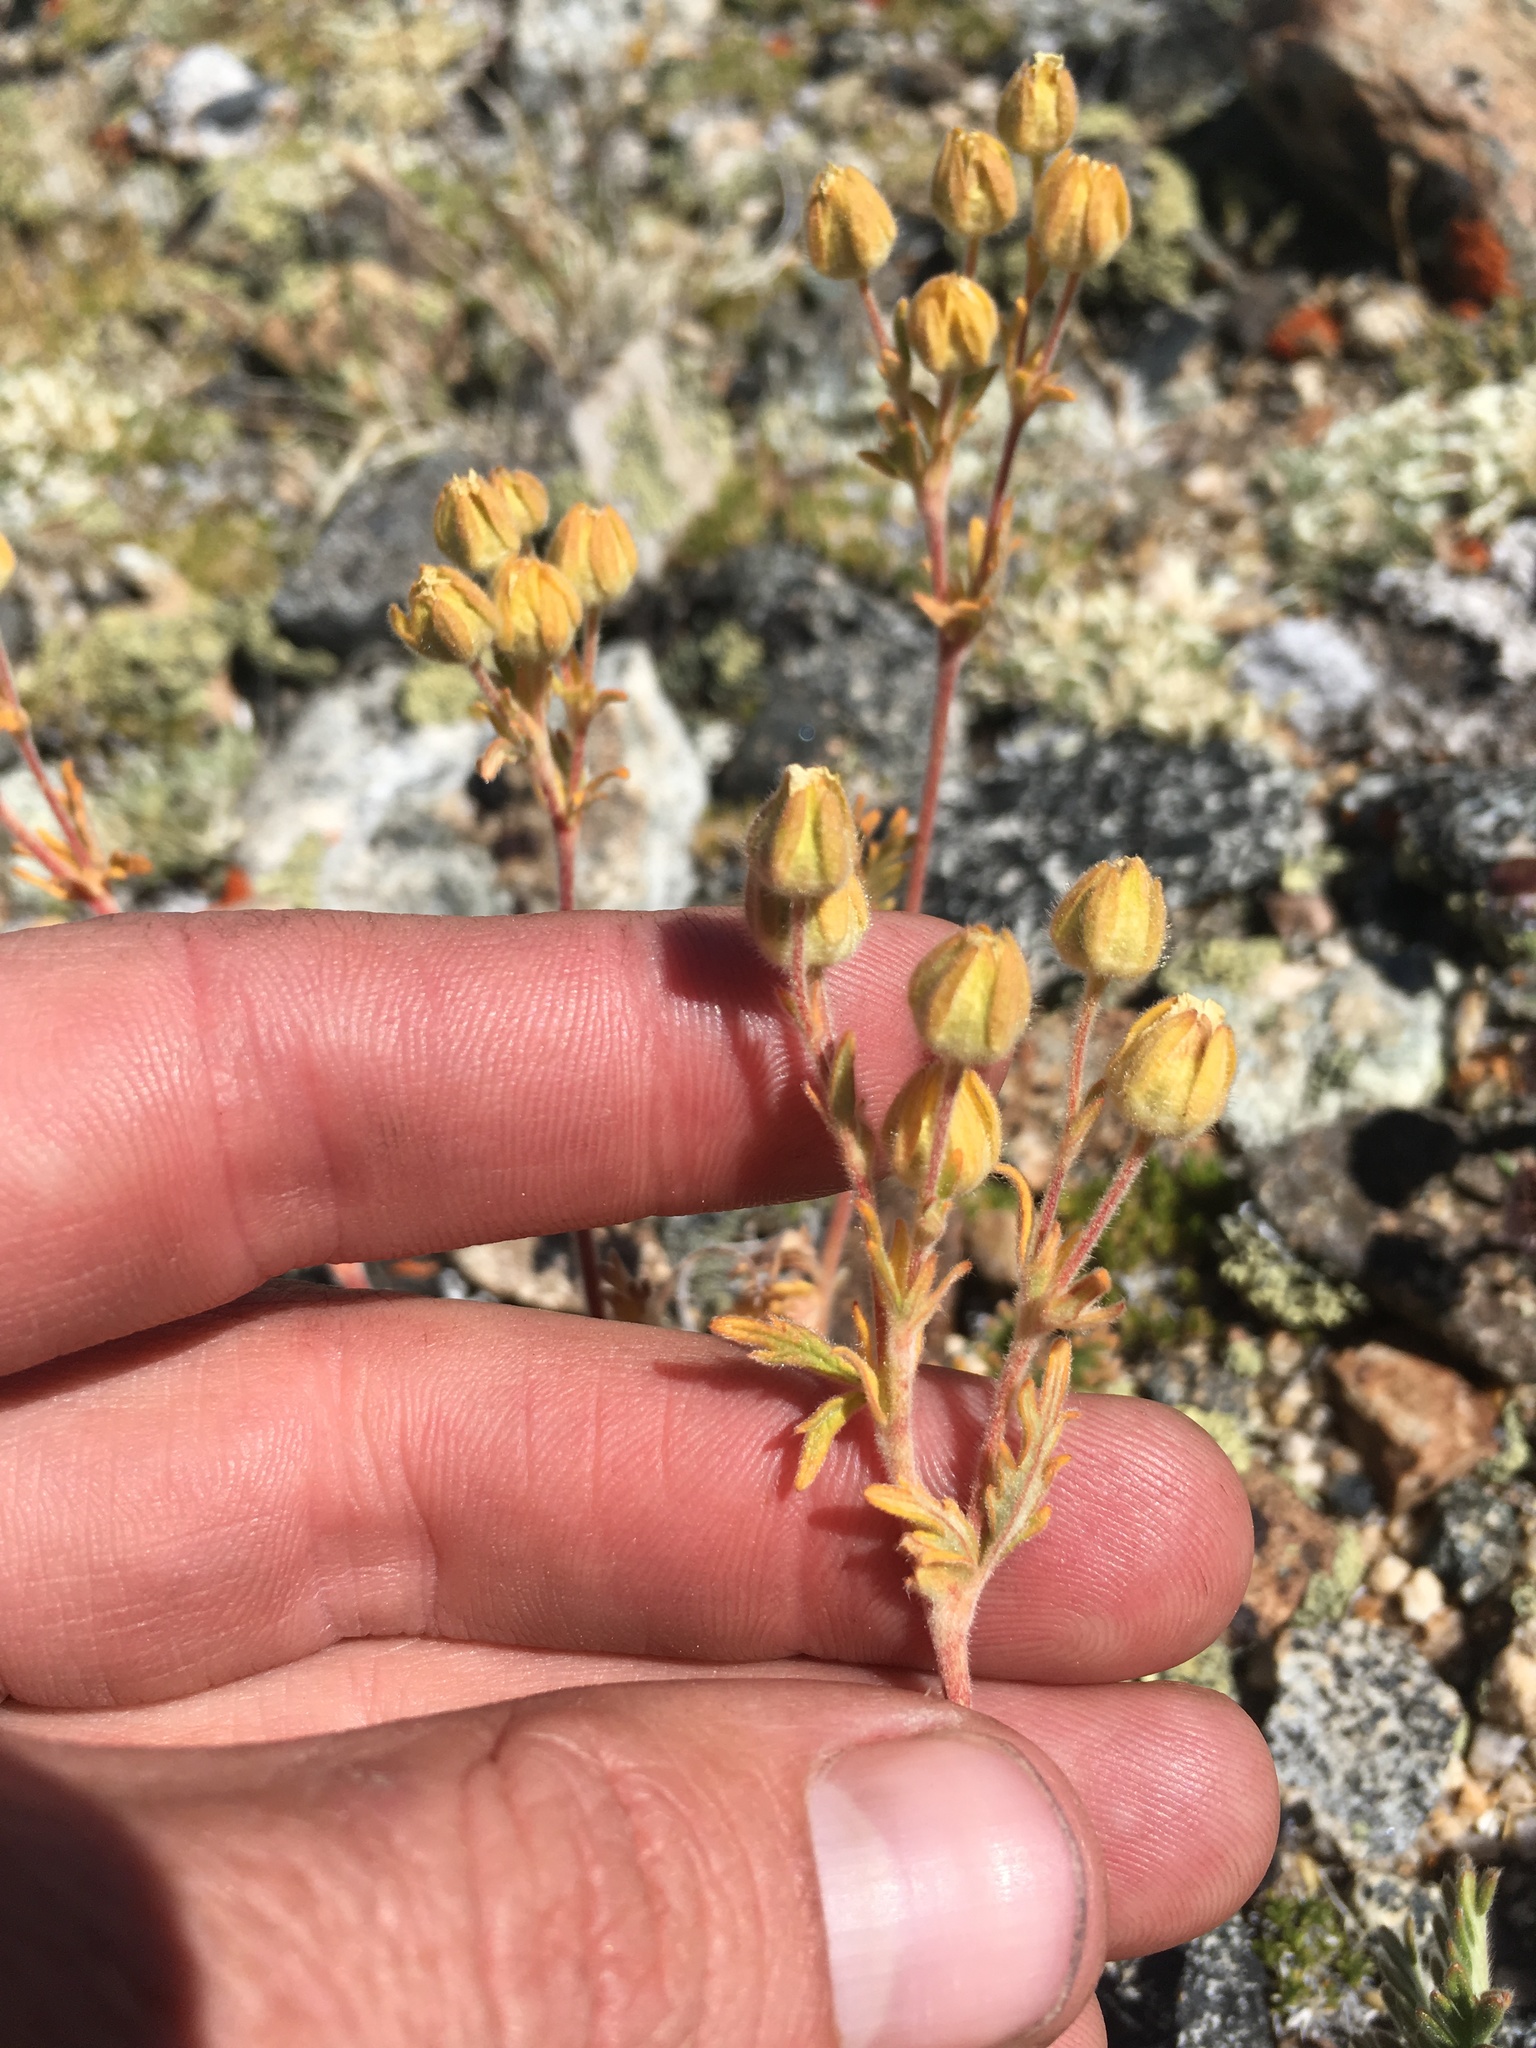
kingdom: Plantae
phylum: Tracheophyta
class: Magnoliopsida
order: Rosales
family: Rosaceae
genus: Potentilla
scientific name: Potentilla pensylvanica
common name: Pennsylvania cinquefoil
